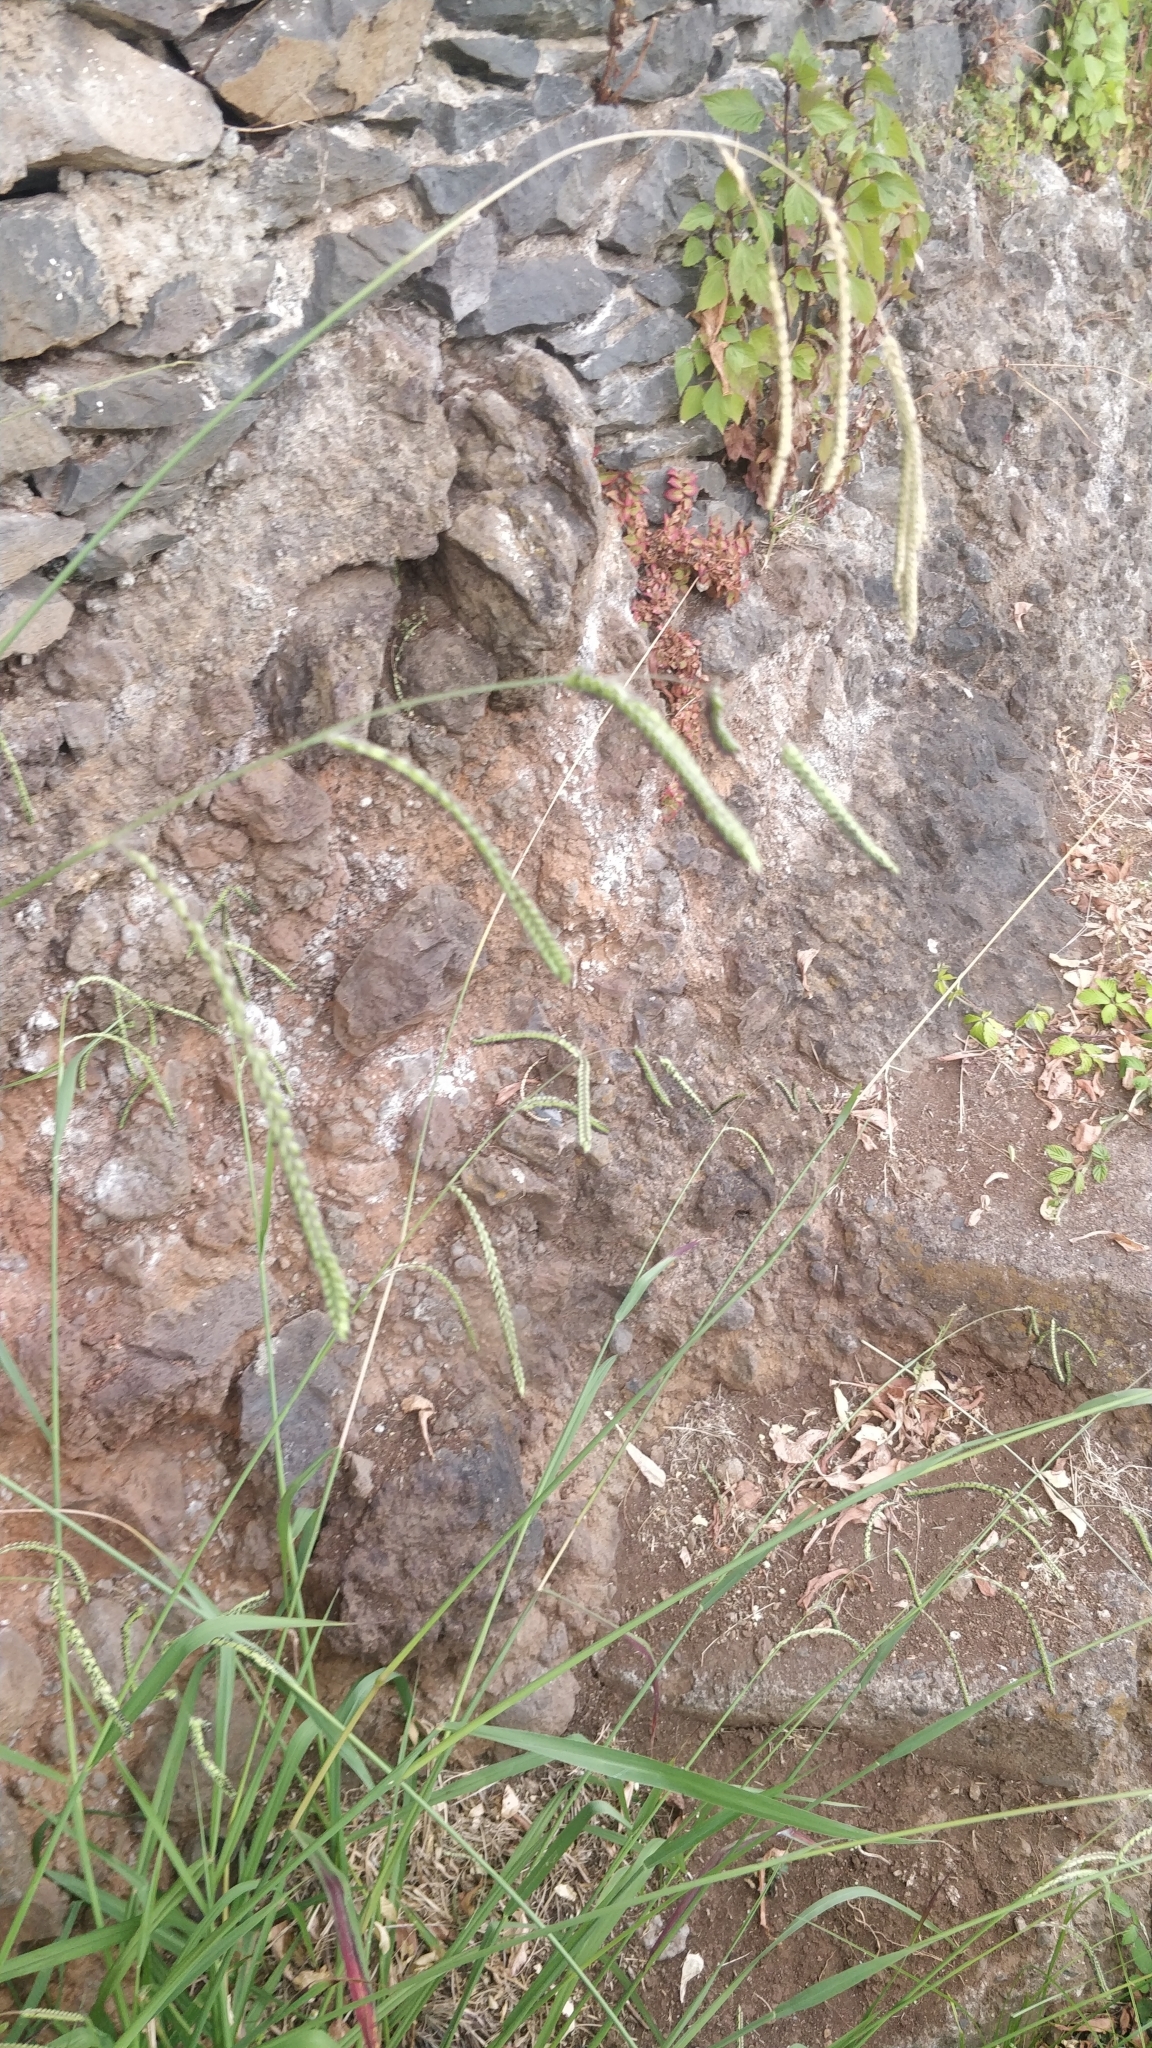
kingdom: Plantae
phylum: Tracheophyta
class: Liliopsida
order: Poales
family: Poaceae
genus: Paspalum
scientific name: Paspalum dilatatum
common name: Dallisgrass
